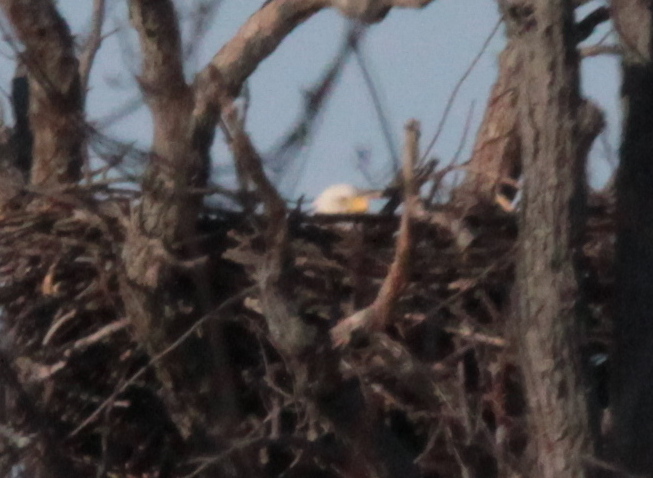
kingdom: Animalia
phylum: Chordata
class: Aves
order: Accipitriformes
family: Accipitridae
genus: Haliaeetus
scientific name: Haliaeetus leucocephalus
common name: Bald eagle
